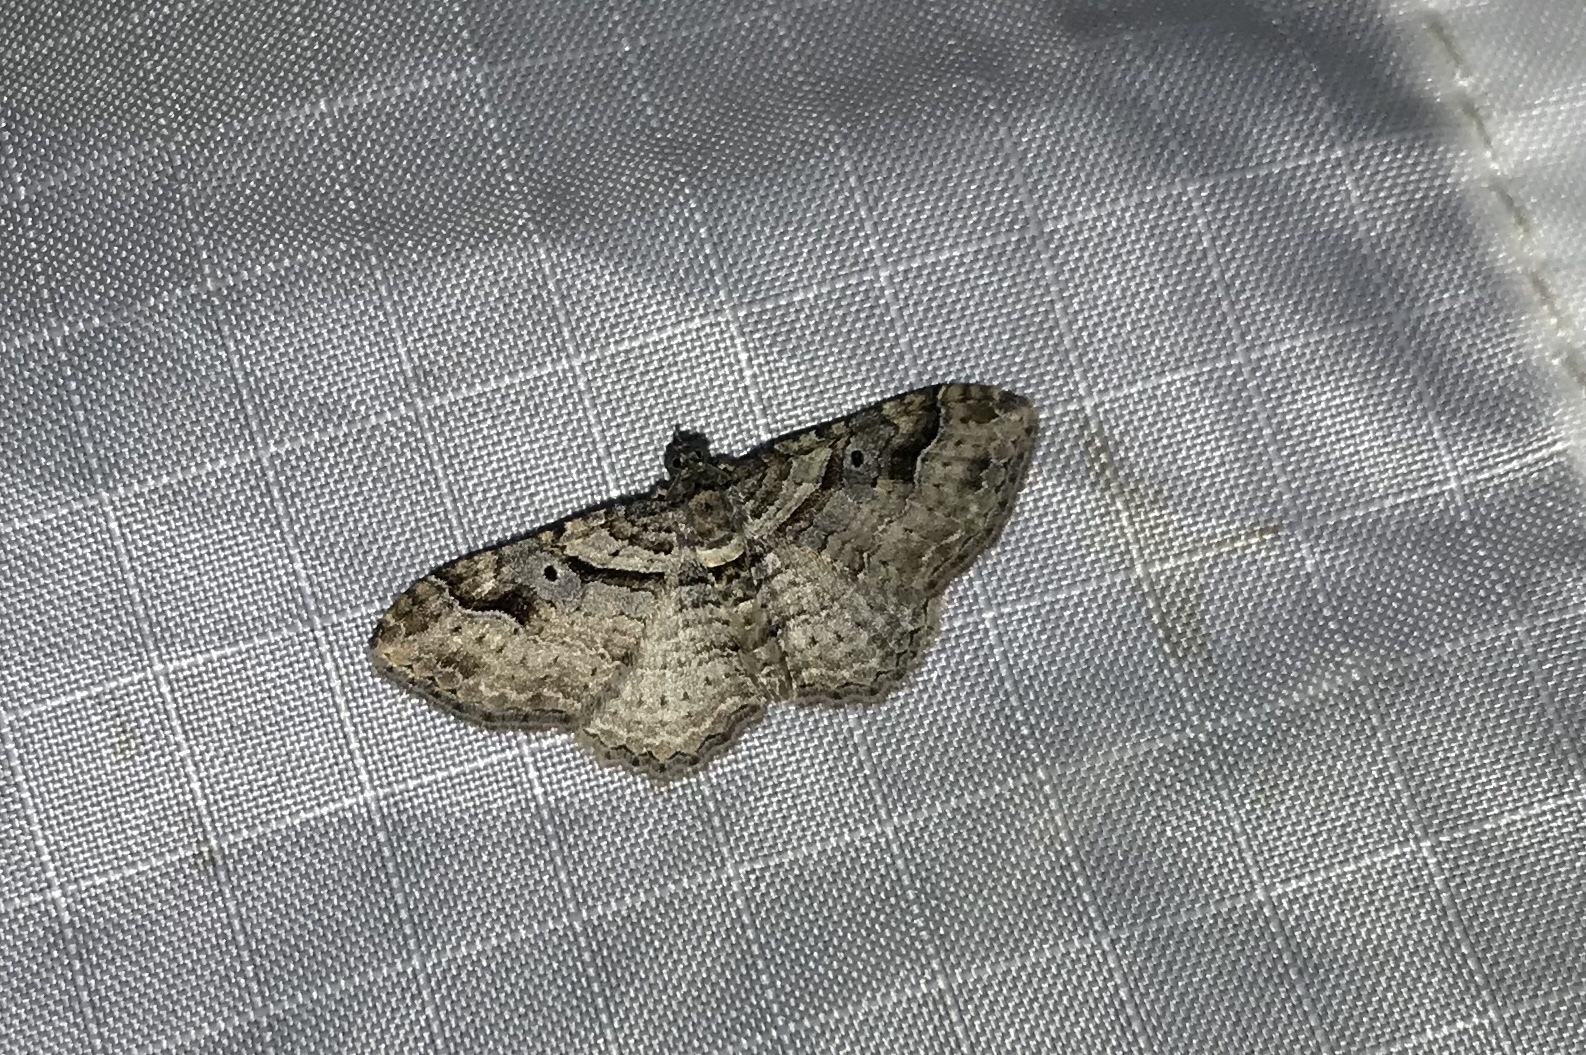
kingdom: Animalia
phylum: Arthropoda
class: Insecta
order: Lepidoptera
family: Geometridae
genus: Costaconvexa
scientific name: Costaconvexa centrostrigaria
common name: Bent-line carpet
